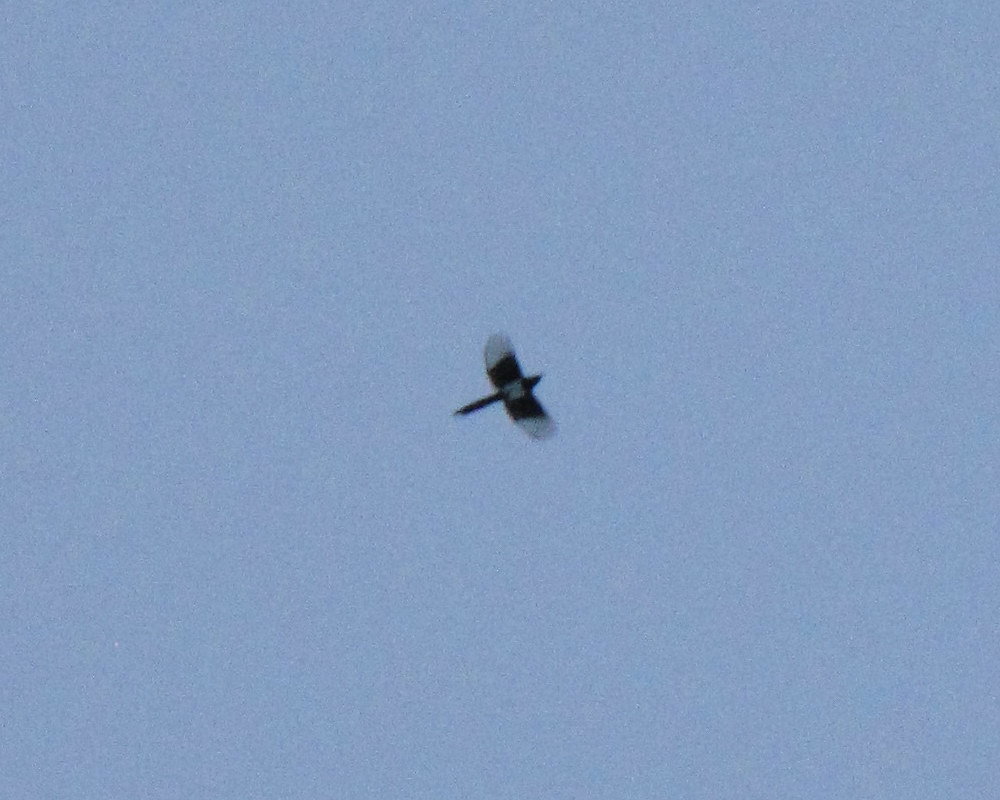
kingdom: Animalia
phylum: Chordata
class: Aves
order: Passeriformes
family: Corvidae
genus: Pica
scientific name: Pica pica
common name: Eurasian magpie
